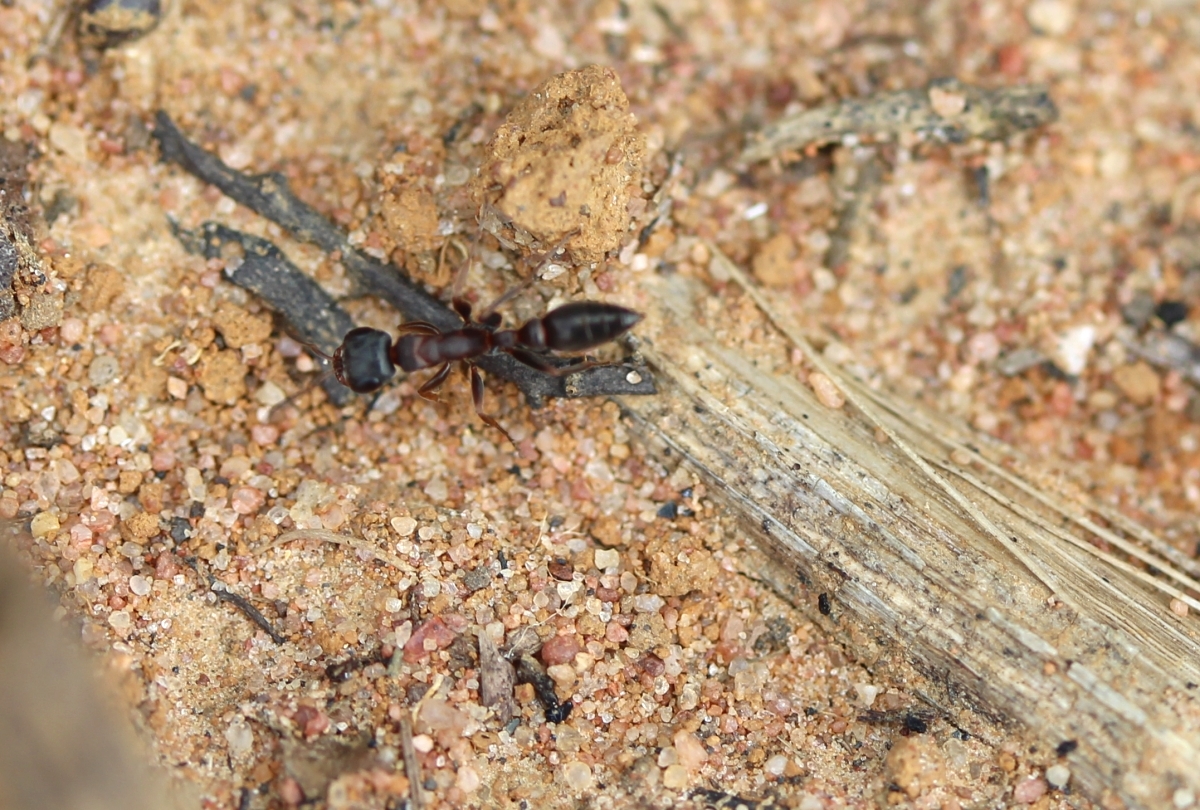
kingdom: Animalia
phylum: Arthropoda
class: Insecta
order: Hymenoptera
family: Formicidae
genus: Pseudomyrmex
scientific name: Pseudomyrmex
